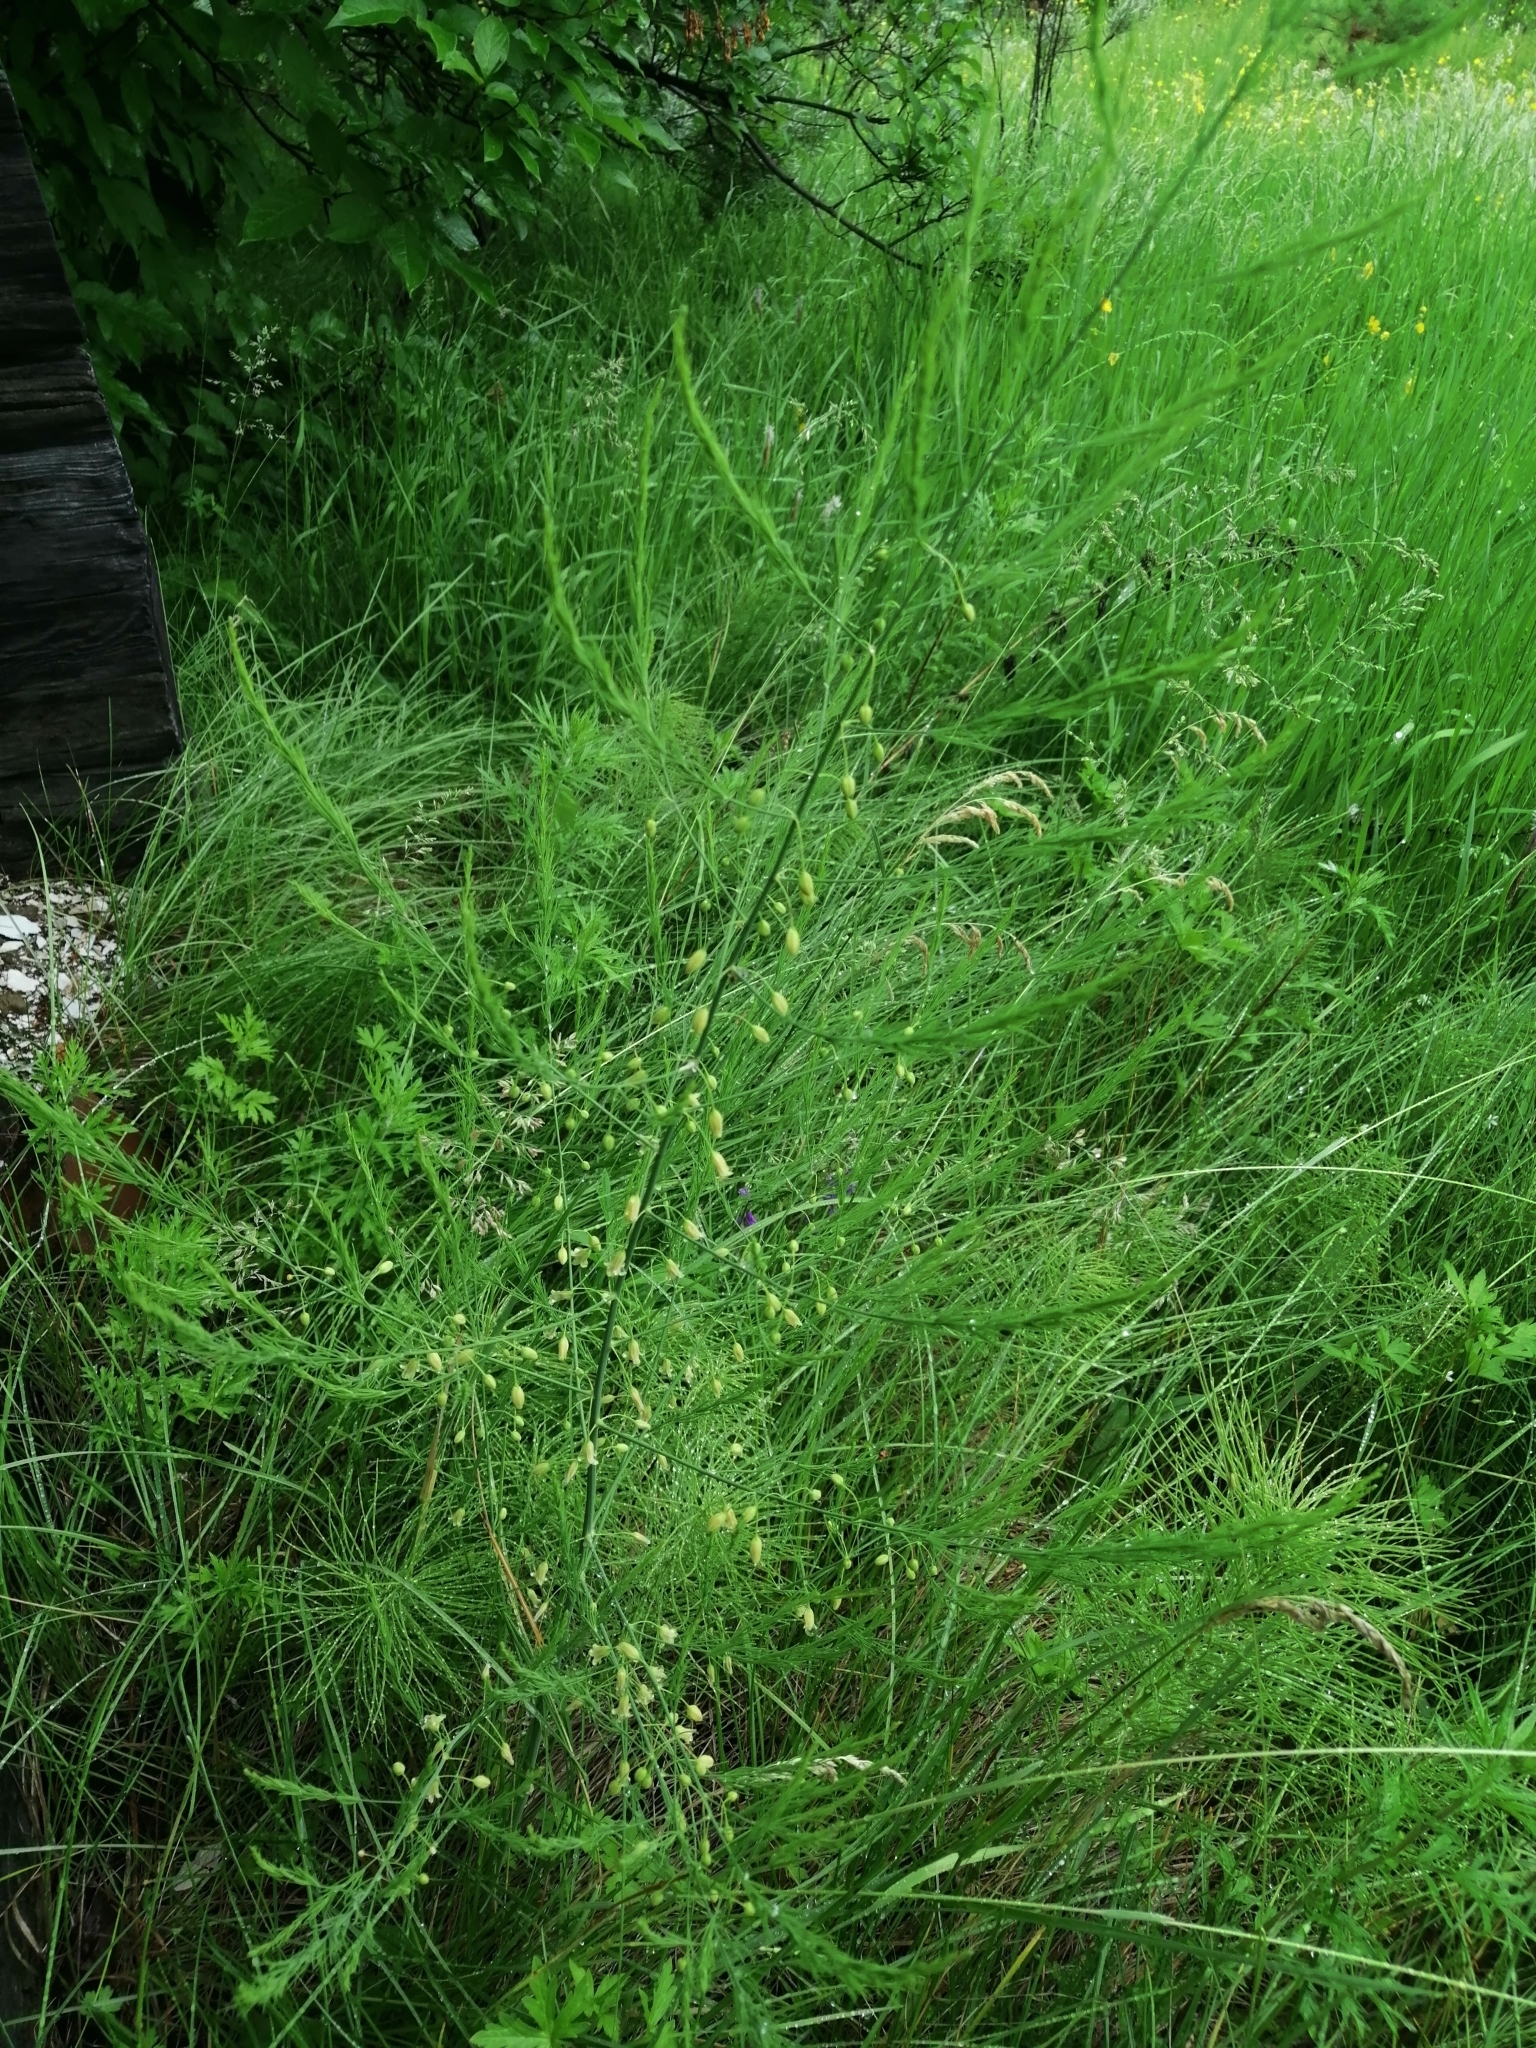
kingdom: Plantae
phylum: Tracheophyta
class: Liliopsida
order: Asparagales
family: Asparagaceae
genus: Asparagus
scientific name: Asparagus officinalis
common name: Garden asparagus
